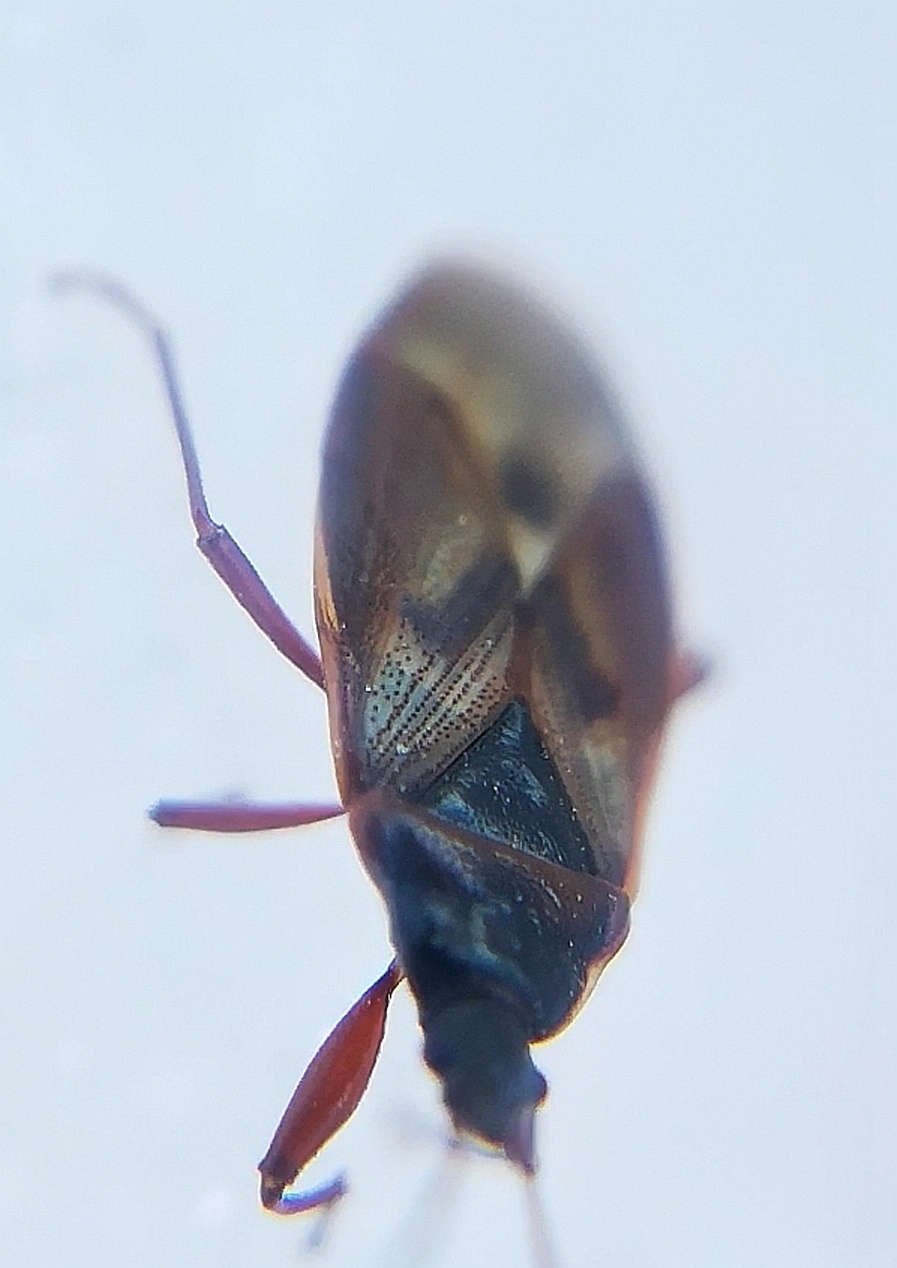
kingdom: Animalia
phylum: Arthropoda
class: Insecta
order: Hemiptera
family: Rhyparochromidae
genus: Gastrodes
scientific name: Gastrodes abietum
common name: Spruce cone bug
